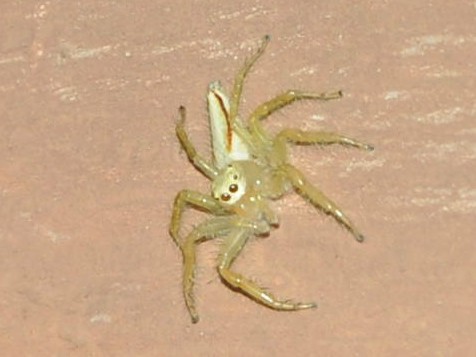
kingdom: Animalia
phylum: Arthropoda
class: Arachnida
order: Araneae
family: Salticidae
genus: Telamonia
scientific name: Telamonia dimidiata
